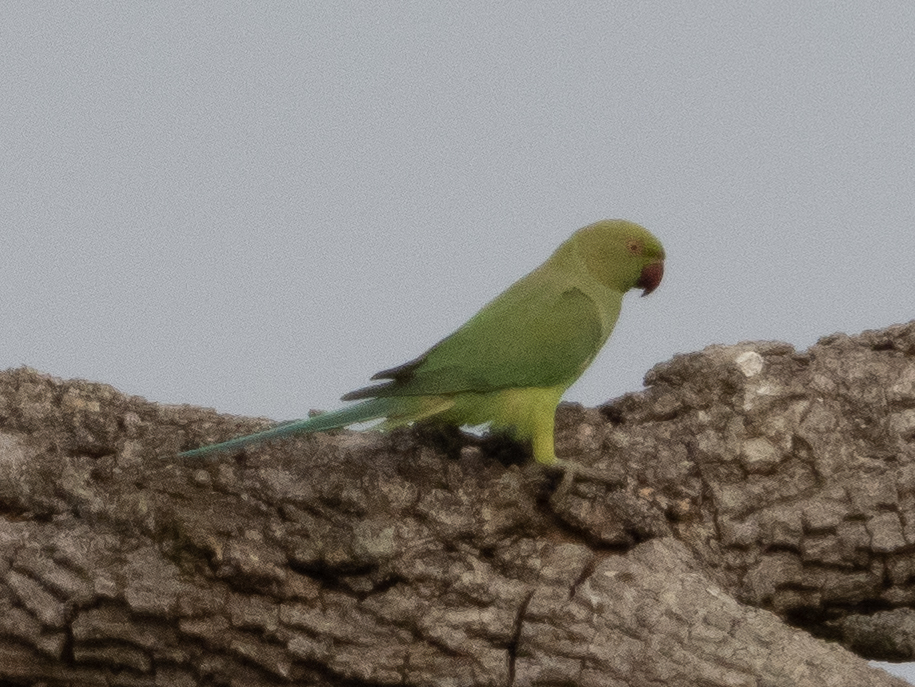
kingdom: Animalia
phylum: Chordata
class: Aves
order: Psittaciformes
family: Psittacidae
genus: Psittacula
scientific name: Psittacula krameri
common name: Rose-ringed parakeet
